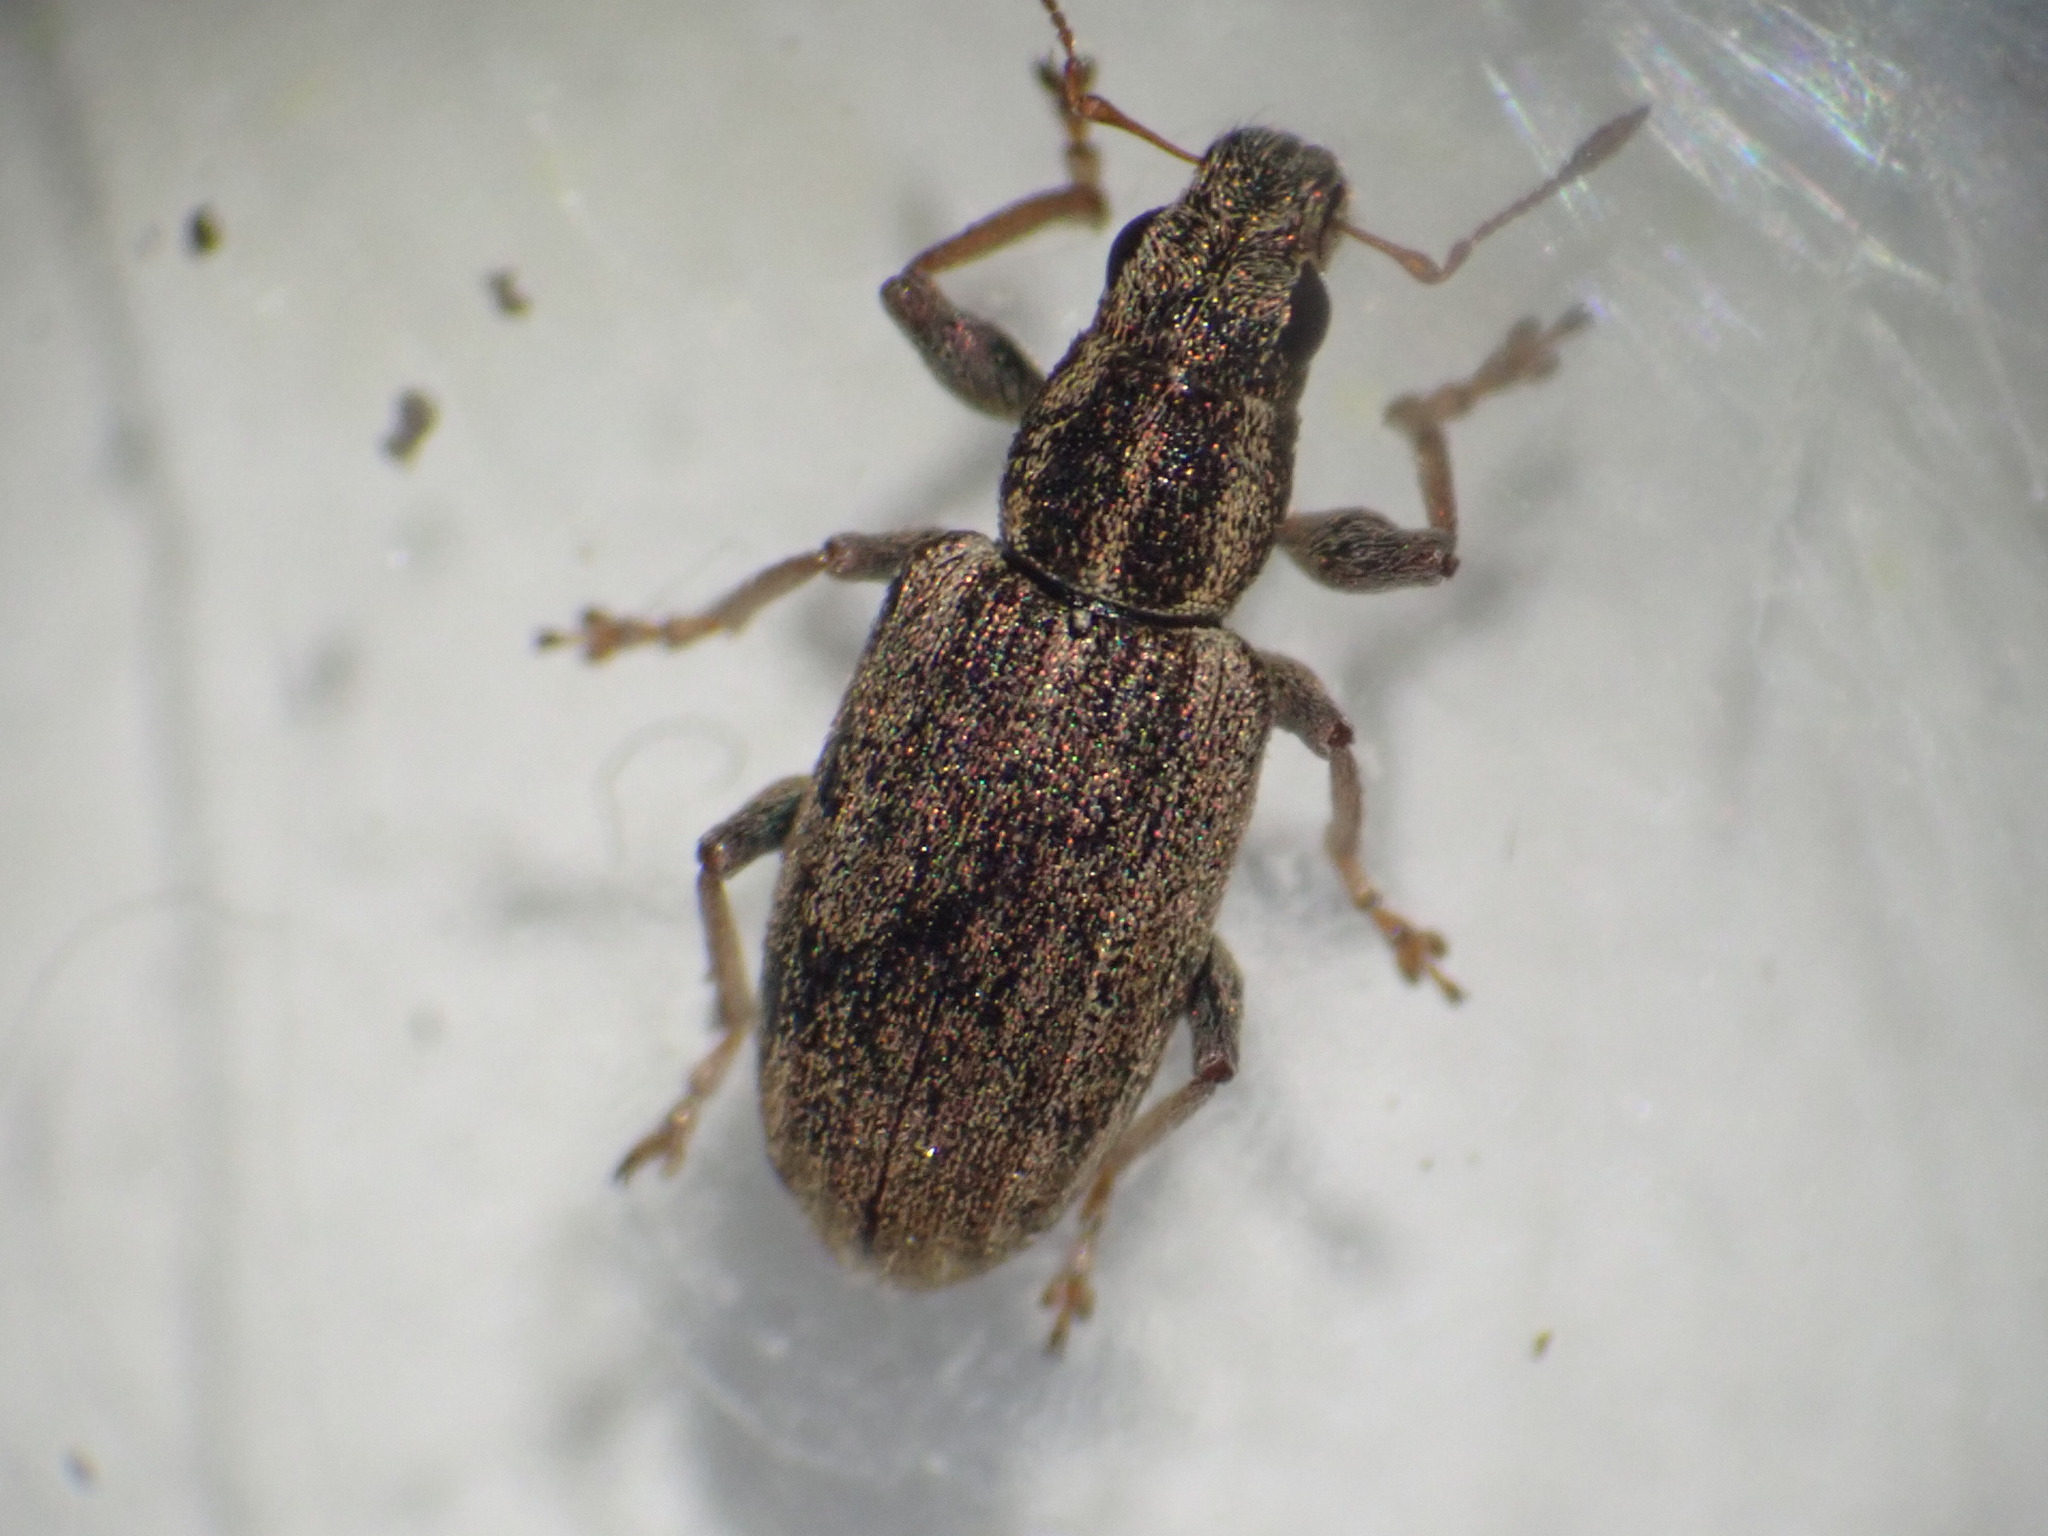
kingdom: Animalia
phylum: Arthropoda
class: Insecta
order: Coleoptera
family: Curculionidae
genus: Sitona
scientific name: Sitona lineatus
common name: Weevil
